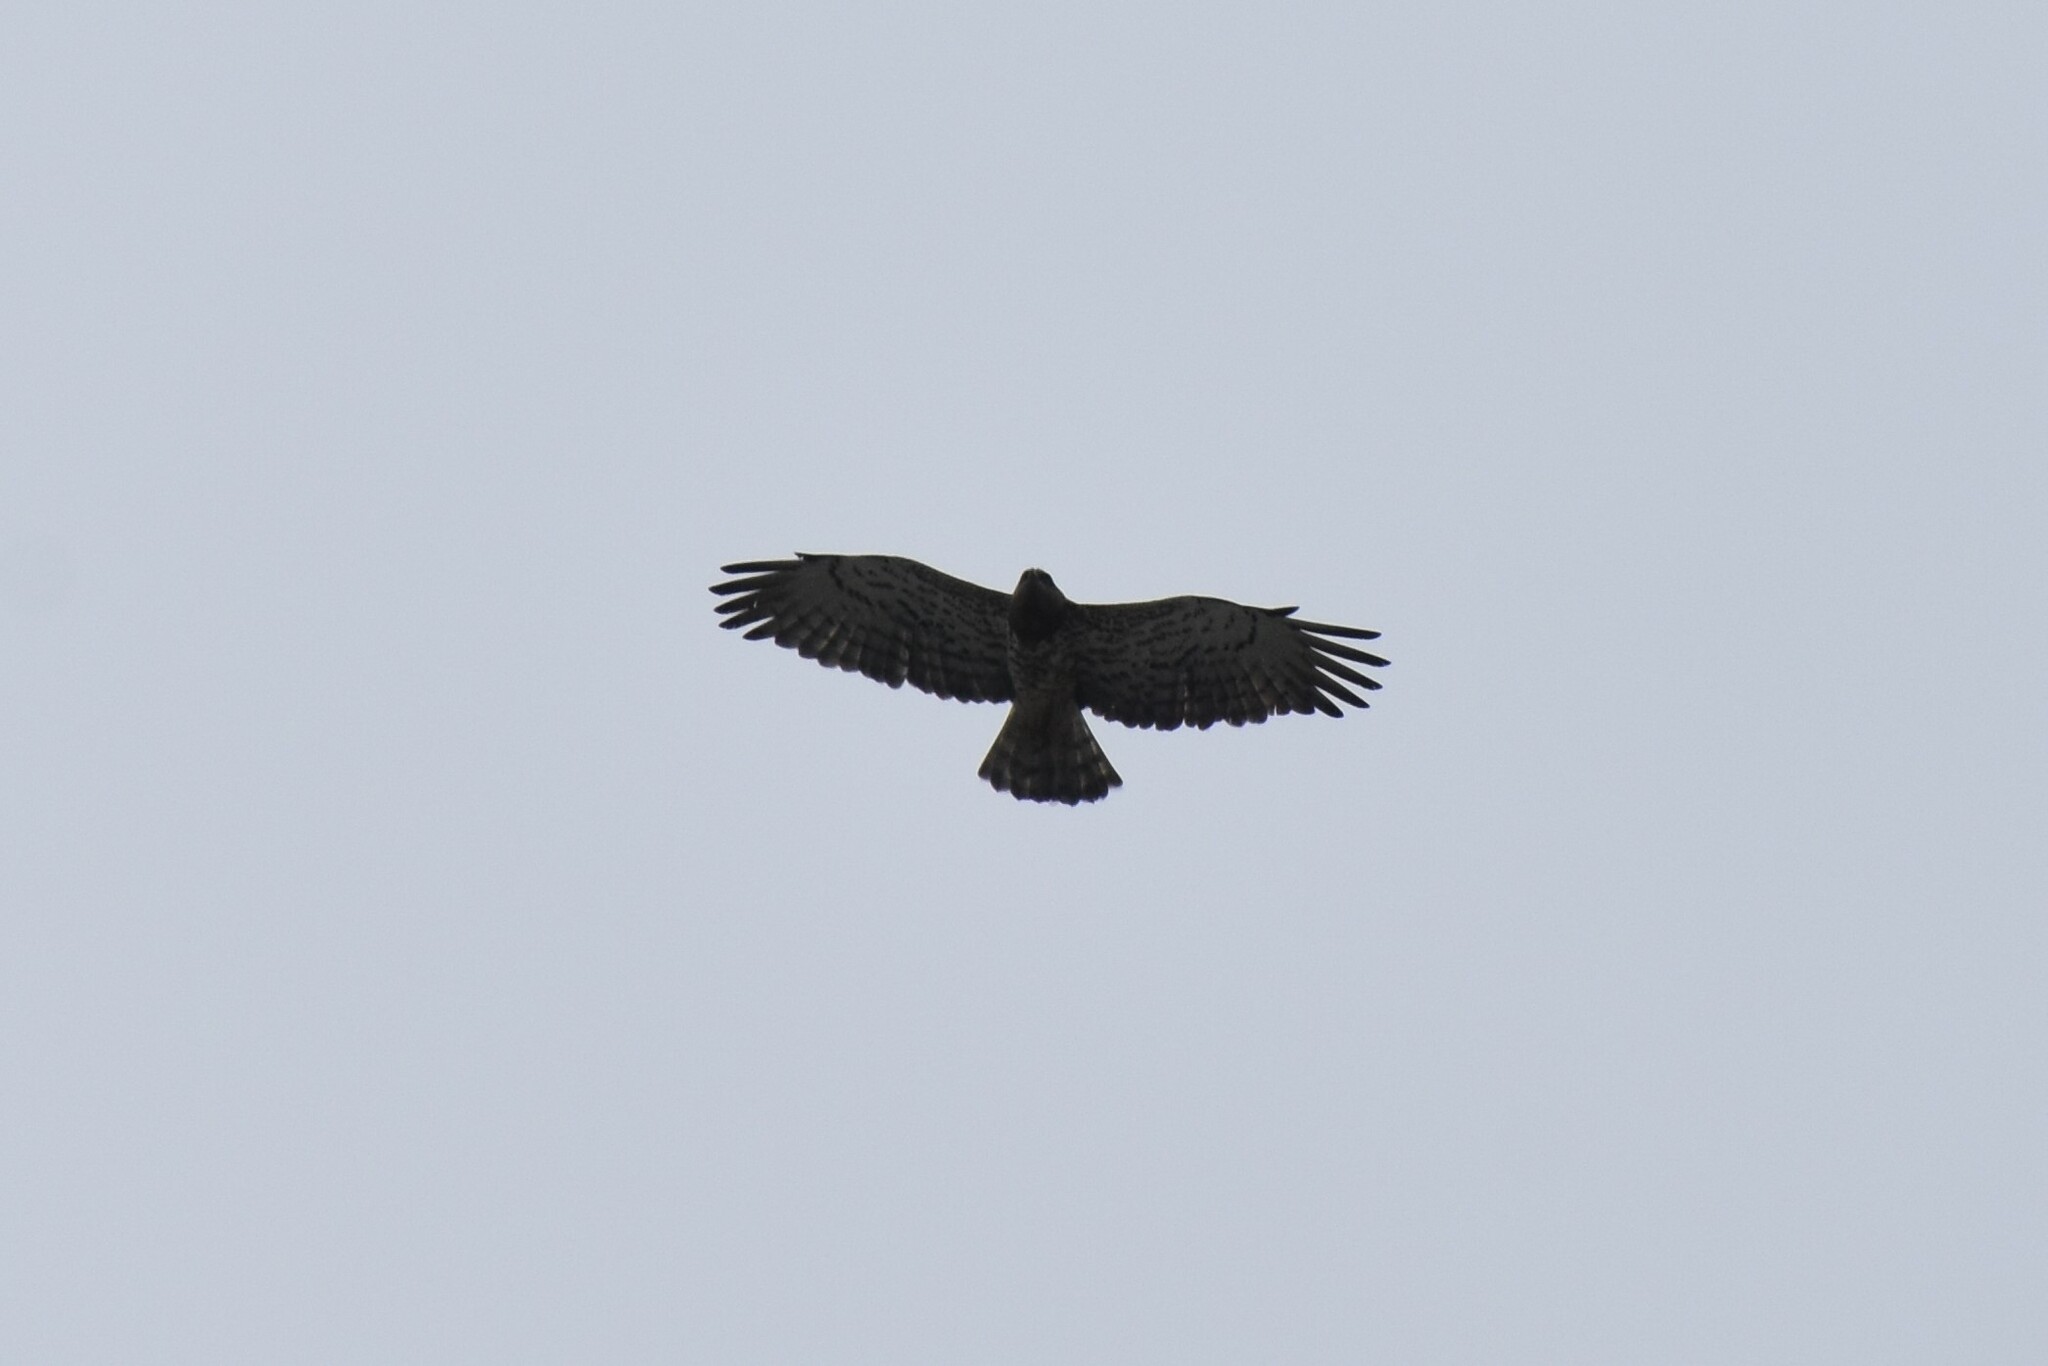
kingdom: Animalia
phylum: Chordata
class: Aves
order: Accipitriformes
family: Accipitridae
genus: Circaetus
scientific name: Circaetus gallicus
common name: Short-toed snake eagle
